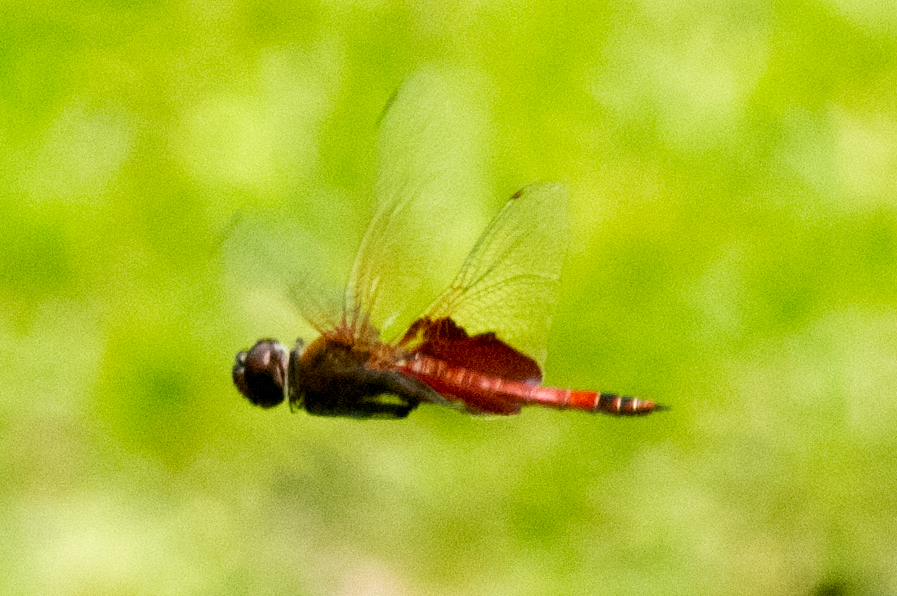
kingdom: Animalia
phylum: Arthropoda
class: Insecta
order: Odonata
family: Libellulidae
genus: Tramea
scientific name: Tramea carolina
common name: Carolina saddlebags
